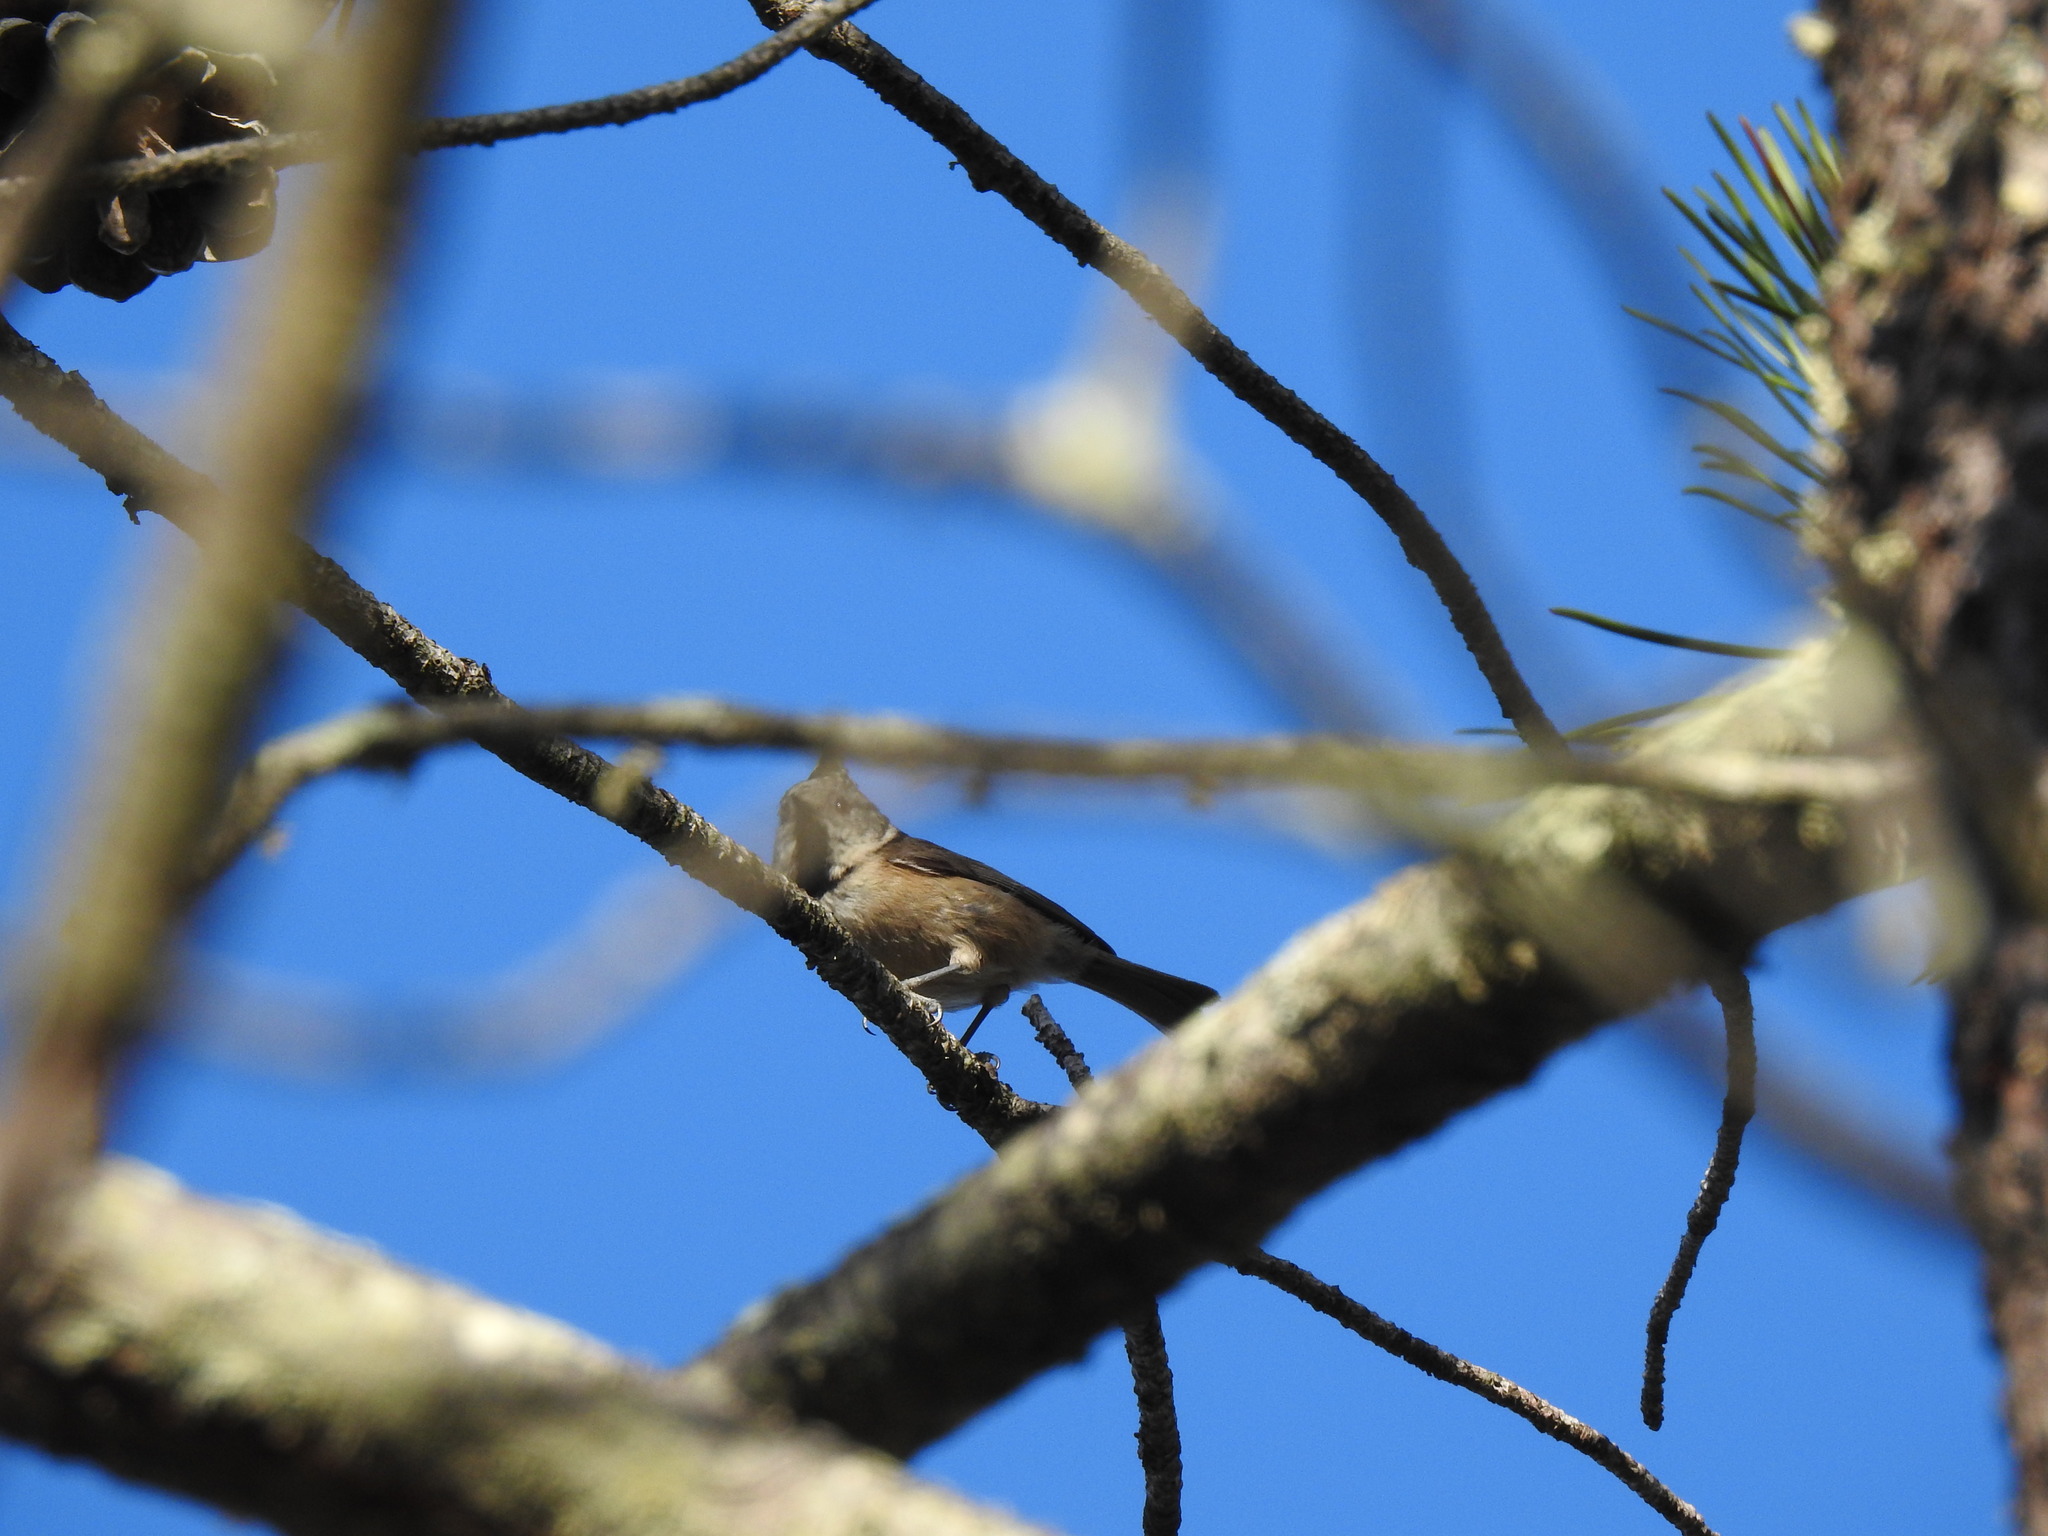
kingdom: Animalia
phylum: Chordata
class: Aves
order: Passeriformes
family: Paridae
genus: Lophophanes
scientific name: Lophophanes cristatus
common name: European crested tit
